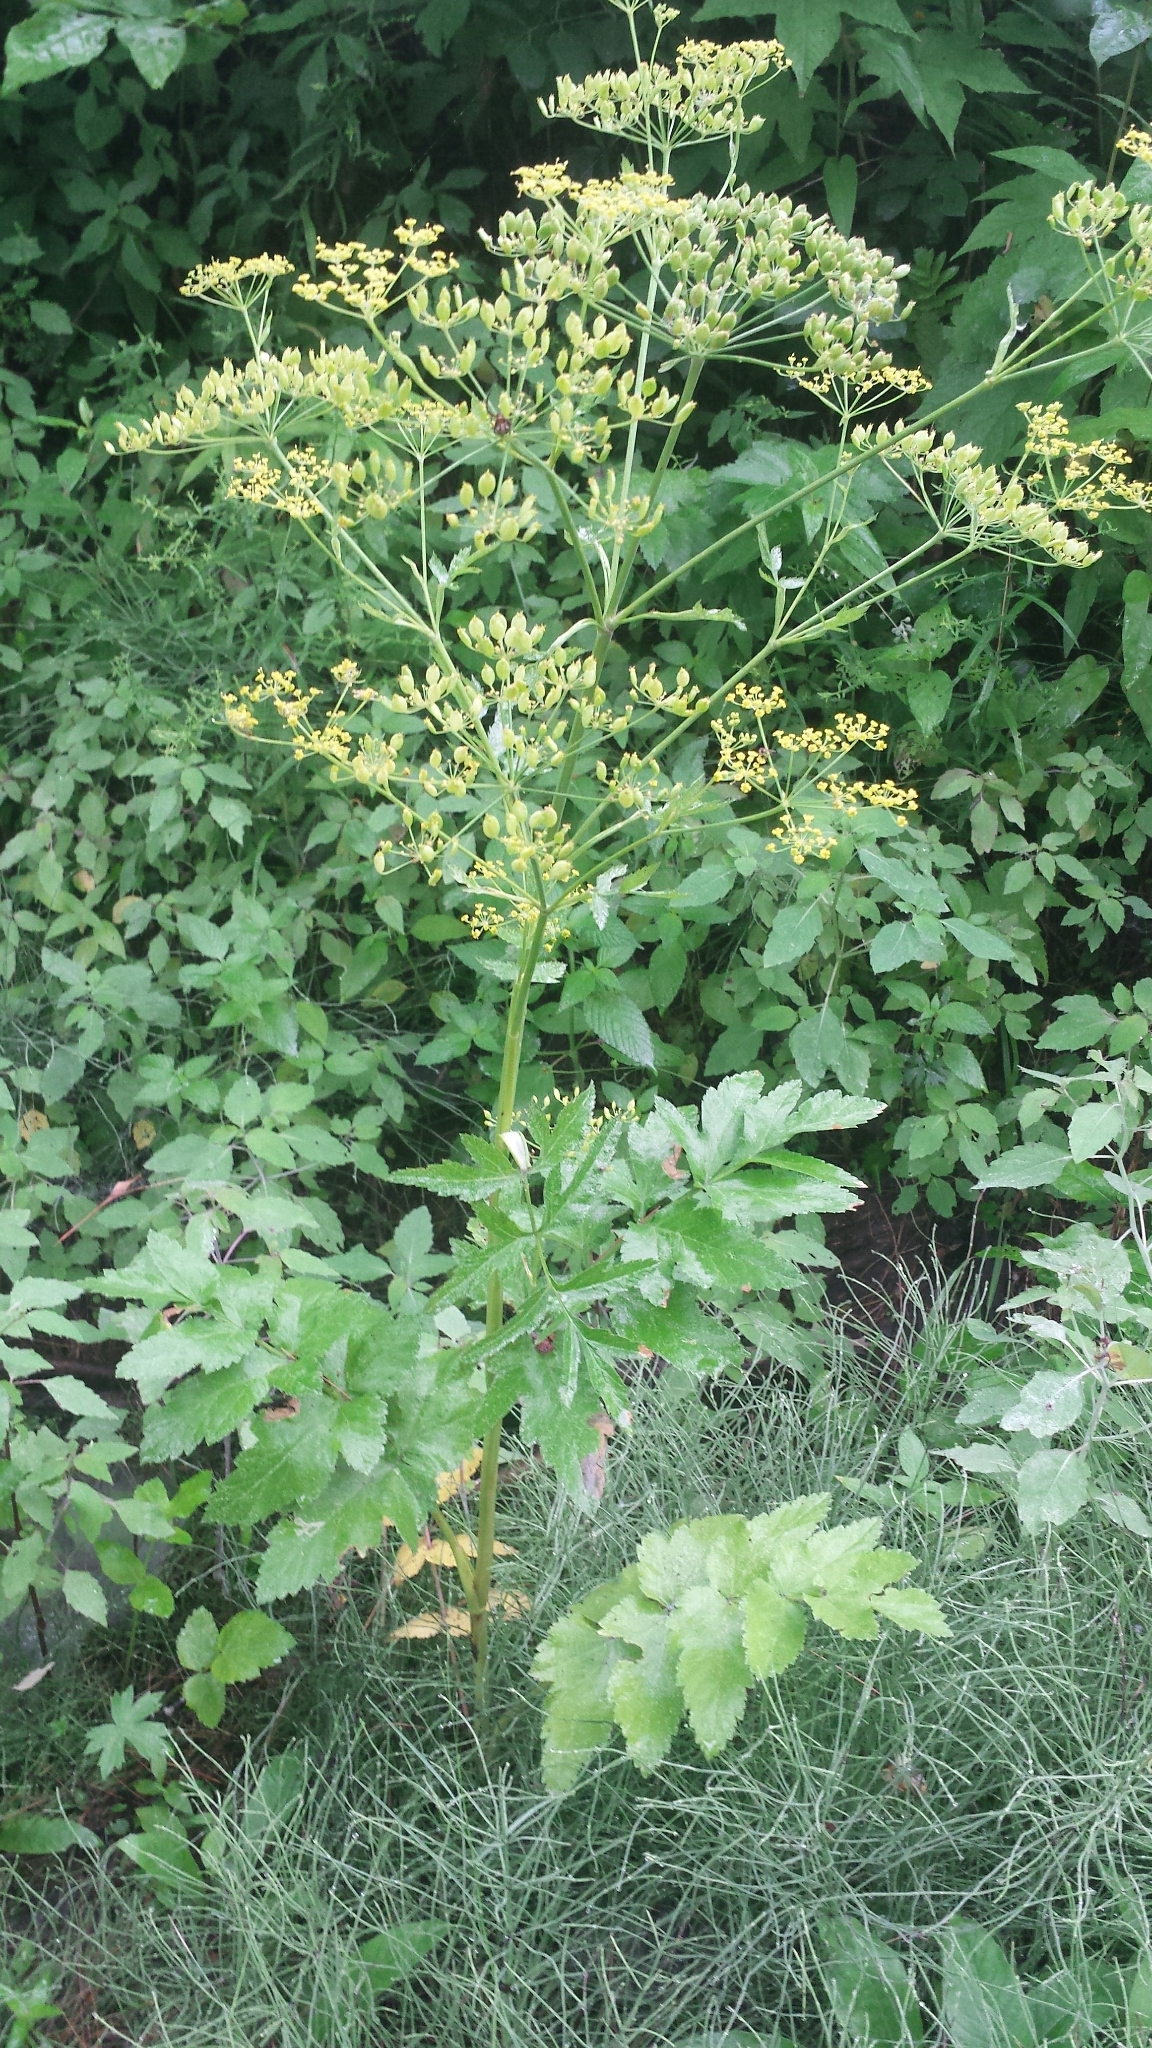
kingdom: Plantae
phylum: Tracheophyta
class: Magnoliopsida
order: Apiales
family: Apiaceae
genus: Pastinaca
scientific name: Pastinaca sativa
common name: Wild parsnip
